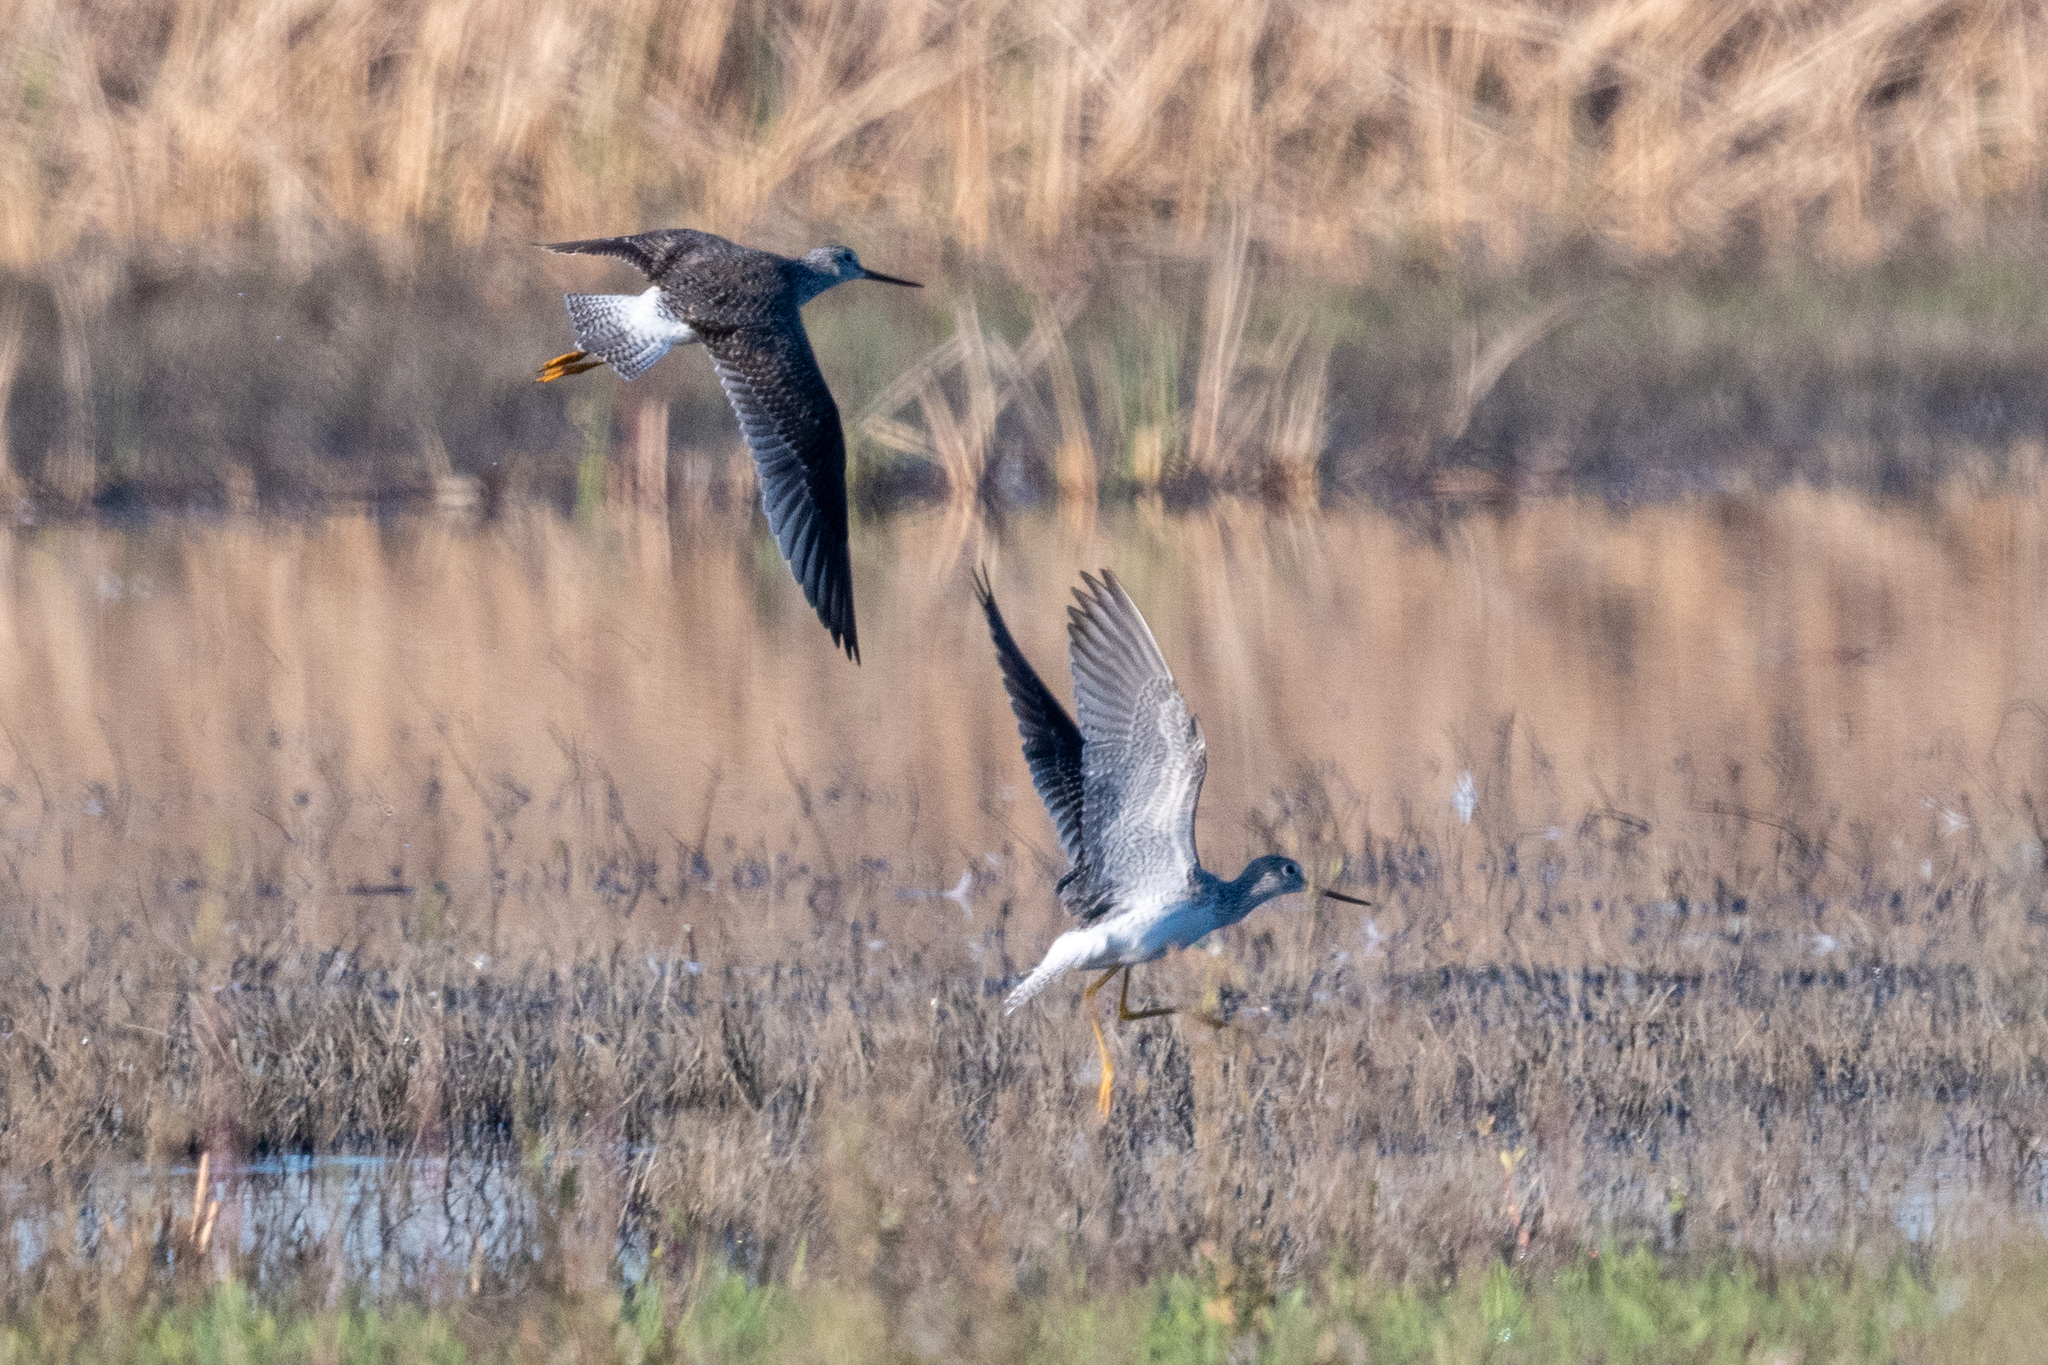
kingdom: Animalia
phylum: Chordata
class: Aves
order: Charadriiformes
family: Scolopacidae
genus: Tringa
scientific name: Tringa melanoleuca
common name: Greater yellowlegs
